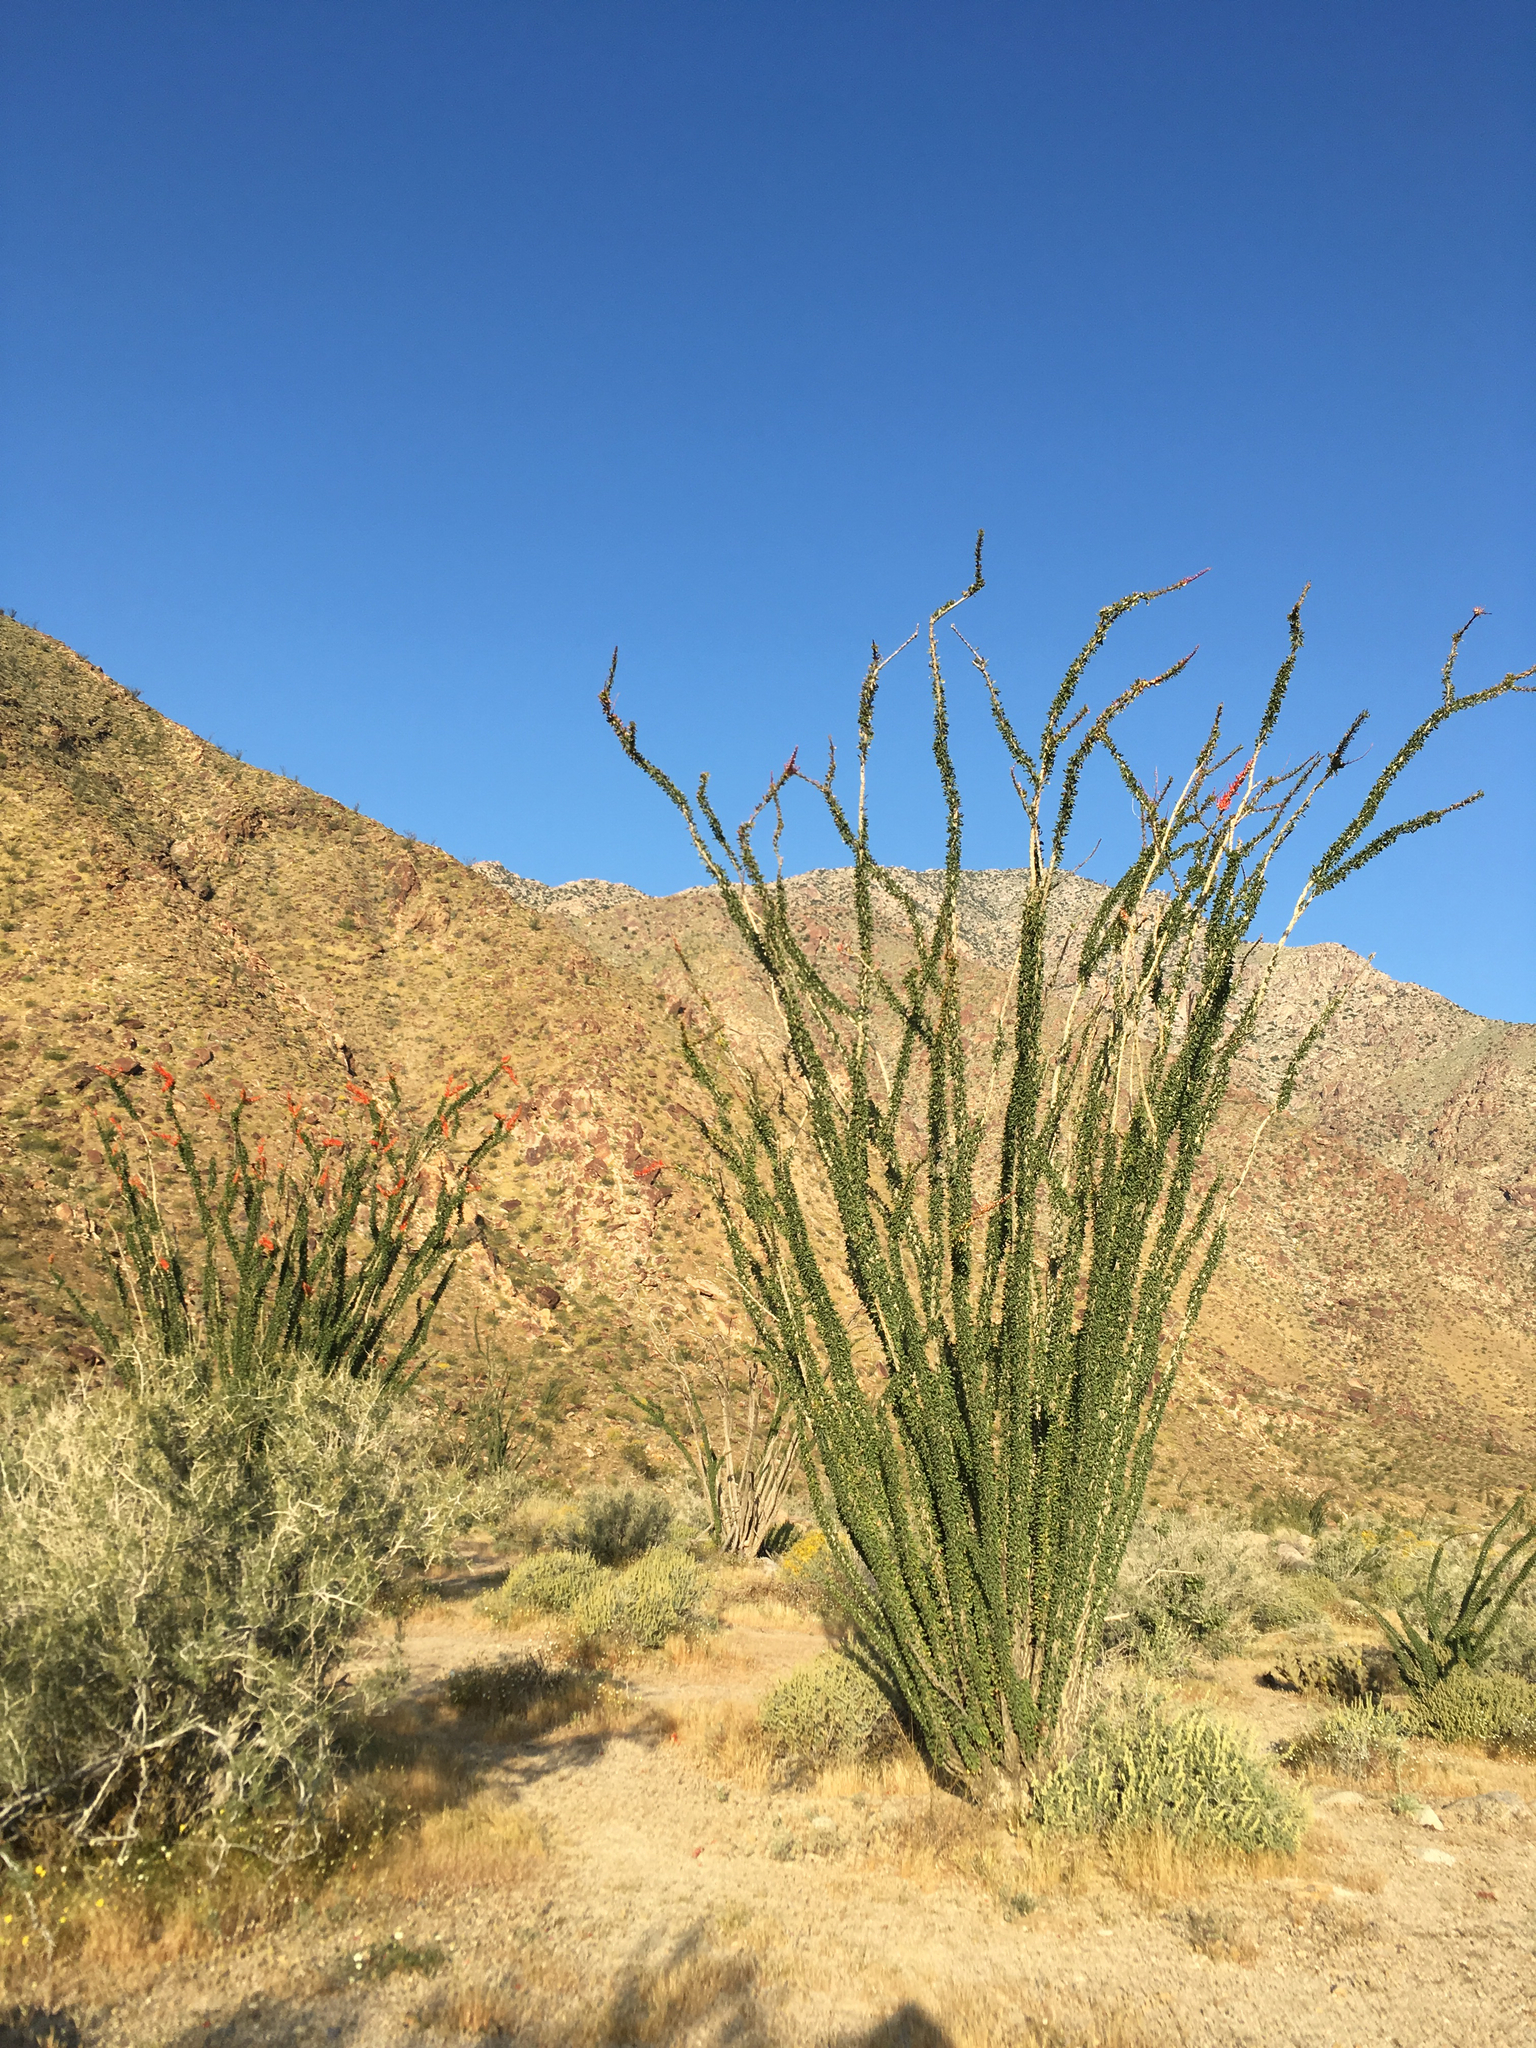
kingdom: Plantae
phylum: Tracheophyta
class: Magnoliopsida
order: Ericales
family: Fouquieriaceae
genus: Fouquieria
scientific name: Fouquieria splendens
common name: Vine-cactus
